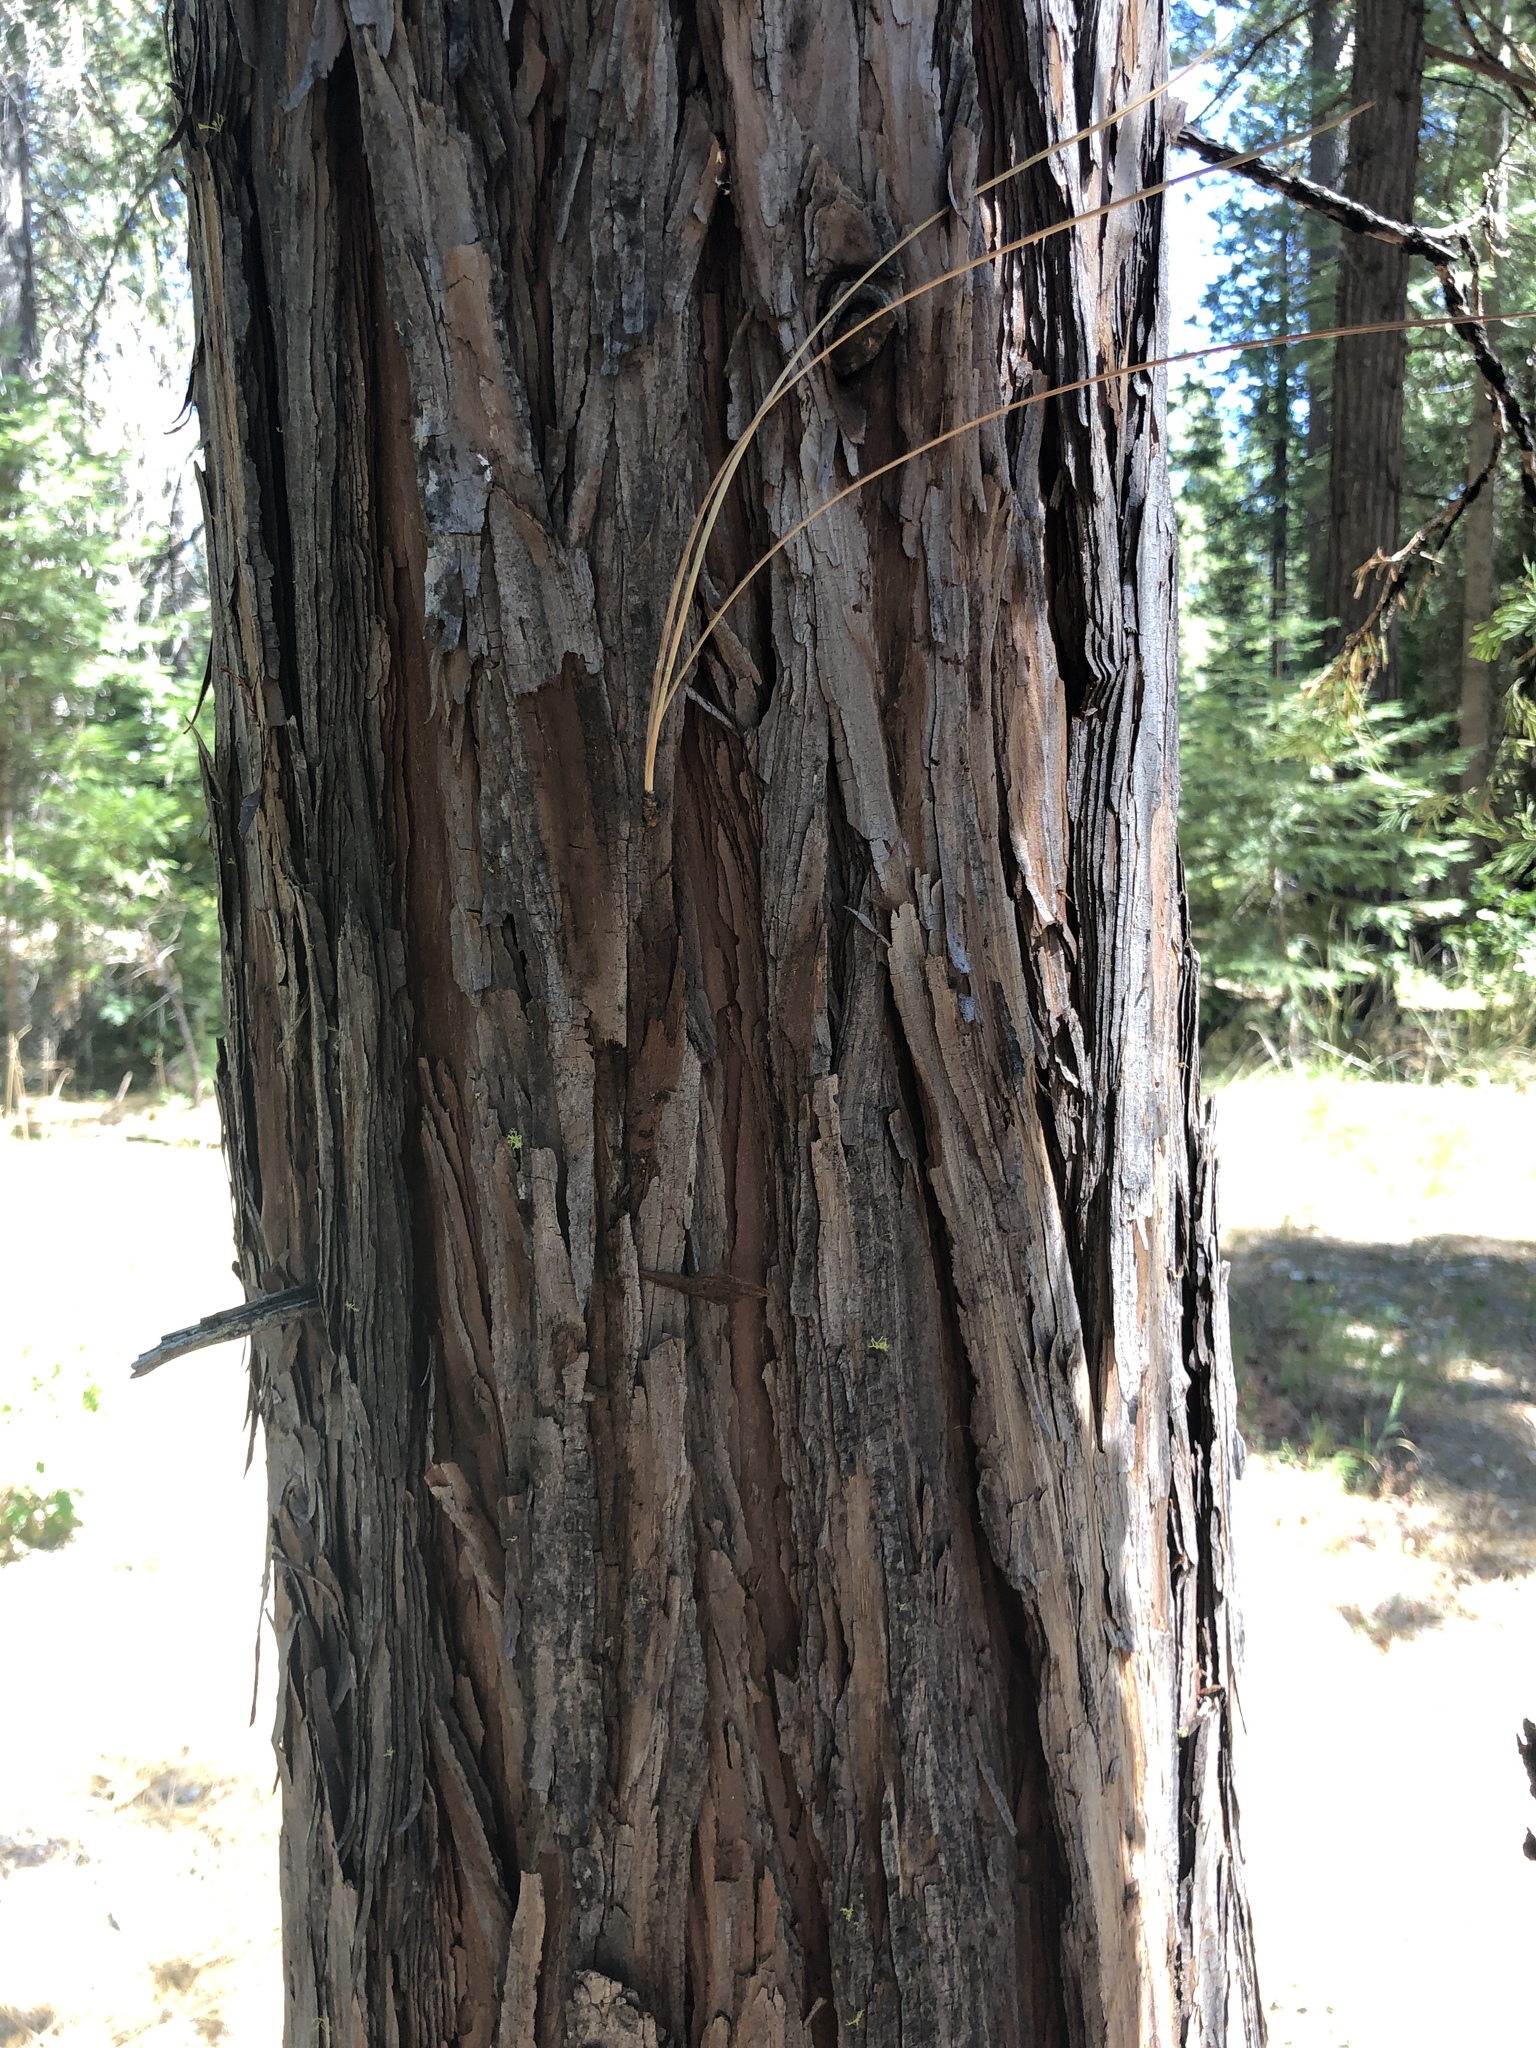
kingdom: Plantae
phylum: Tracheophyta
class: Pinopsida
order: Pinales
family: Cupressaceae
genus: Calocedrus
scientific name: Calocedrus decurrens
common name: Californian incense-cedar
